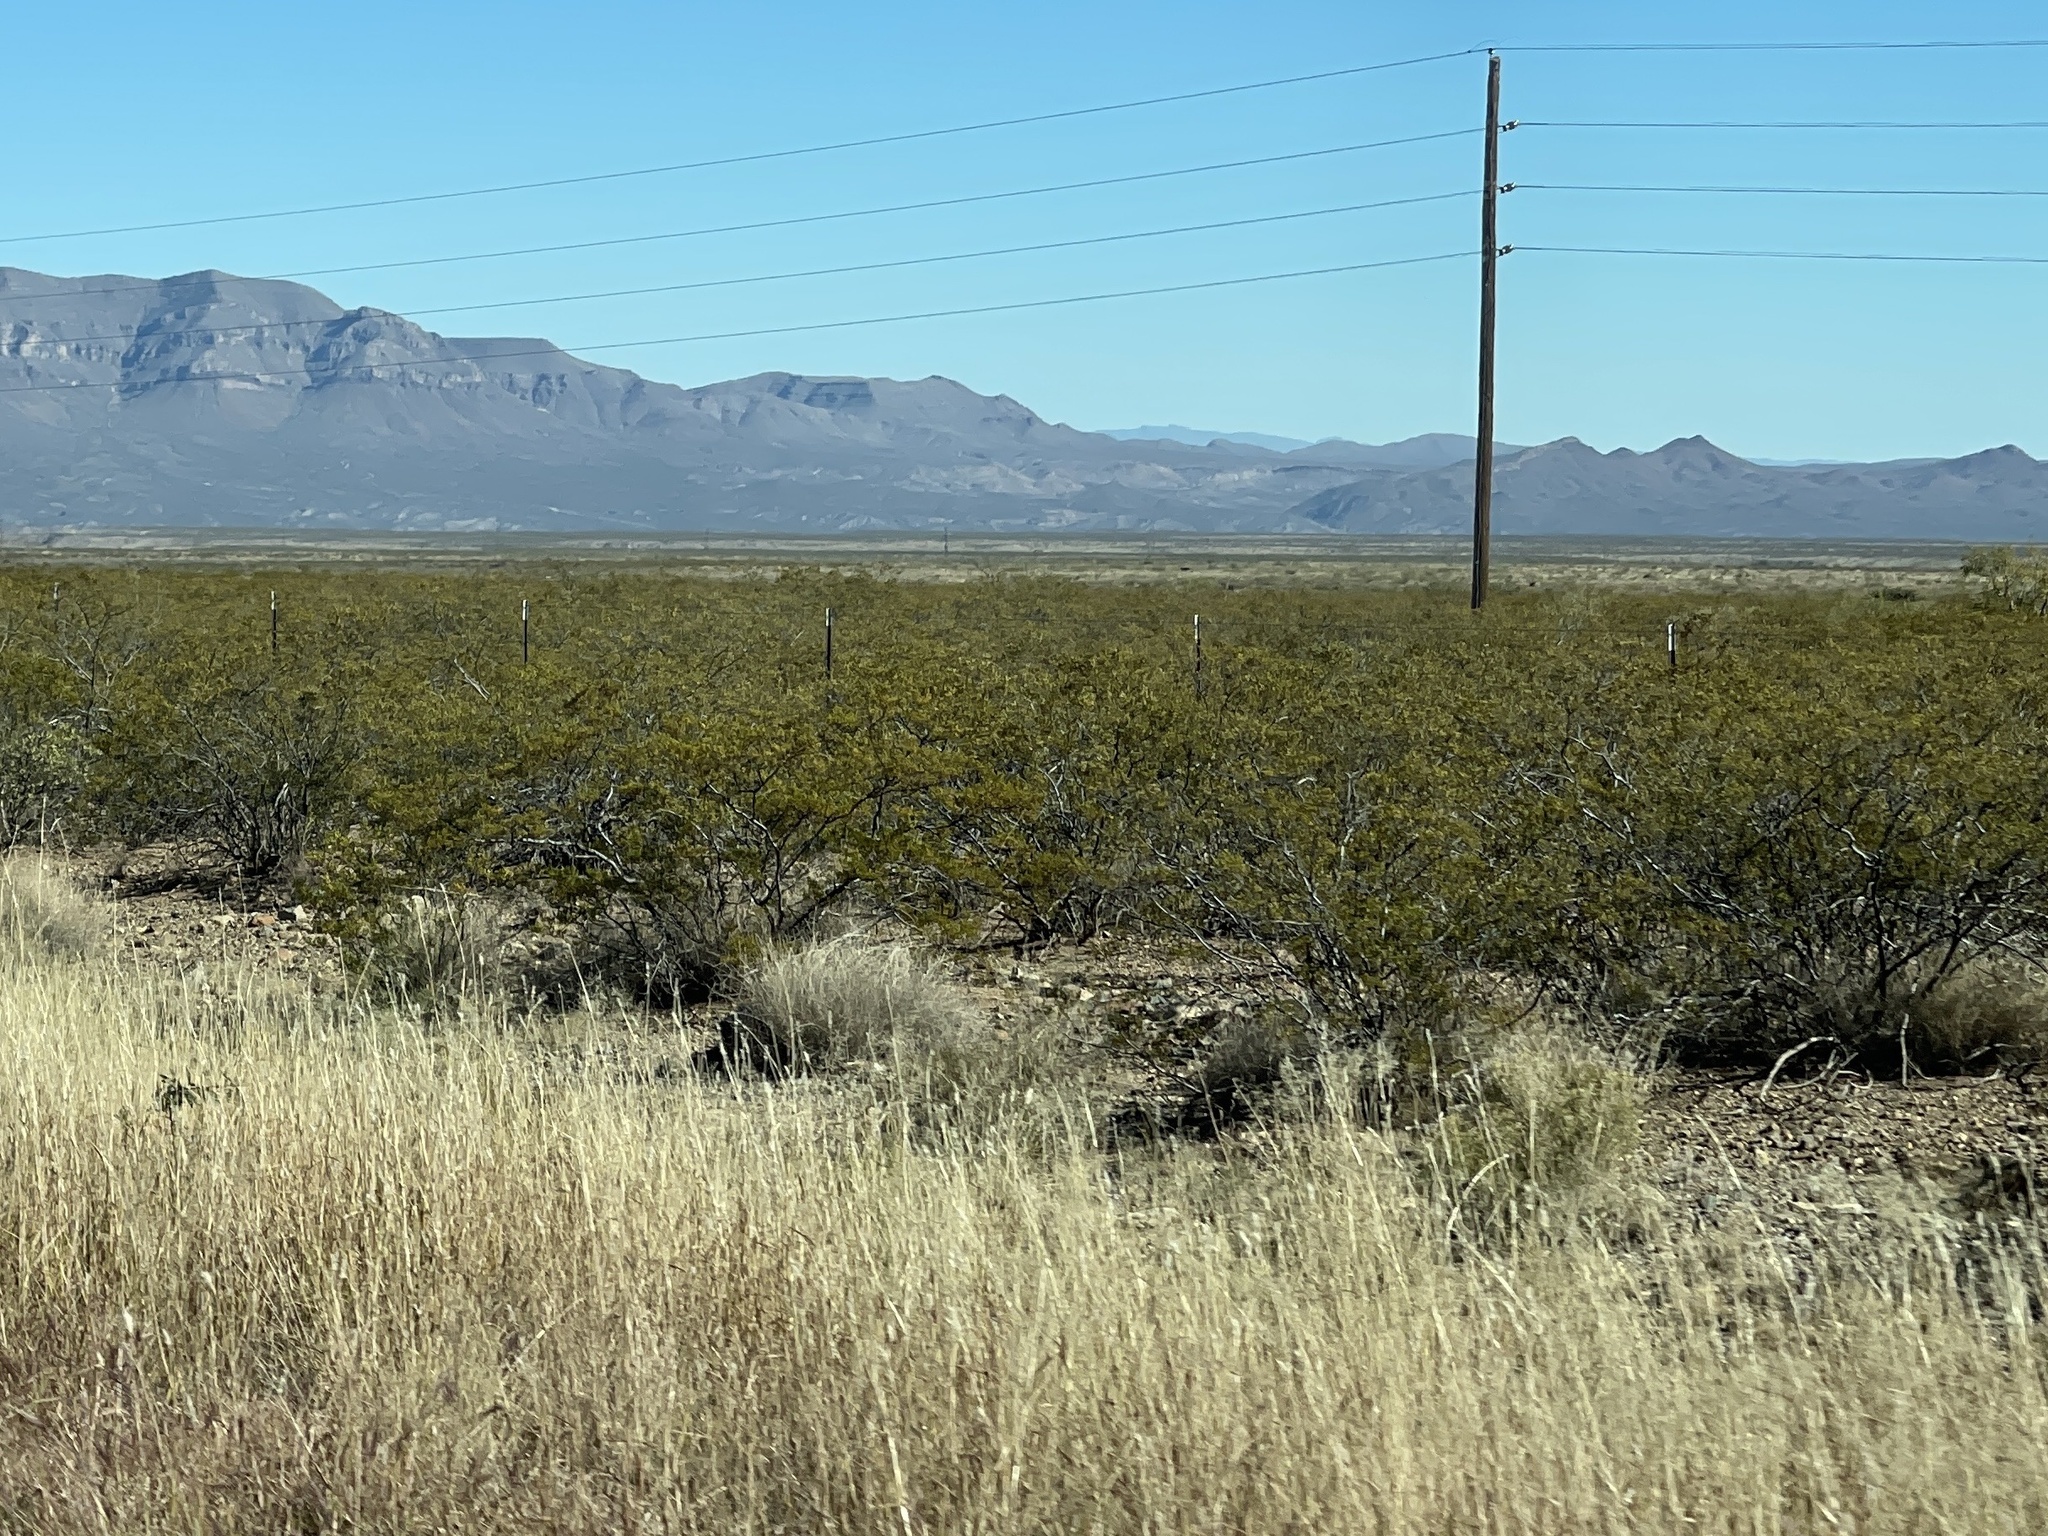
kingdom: Plantae
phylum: Tracheophyta
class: Magnoliopsida
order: Zygophyllales
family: Zygophyllaceae
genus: Larrea
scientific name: Larrea tridentata
